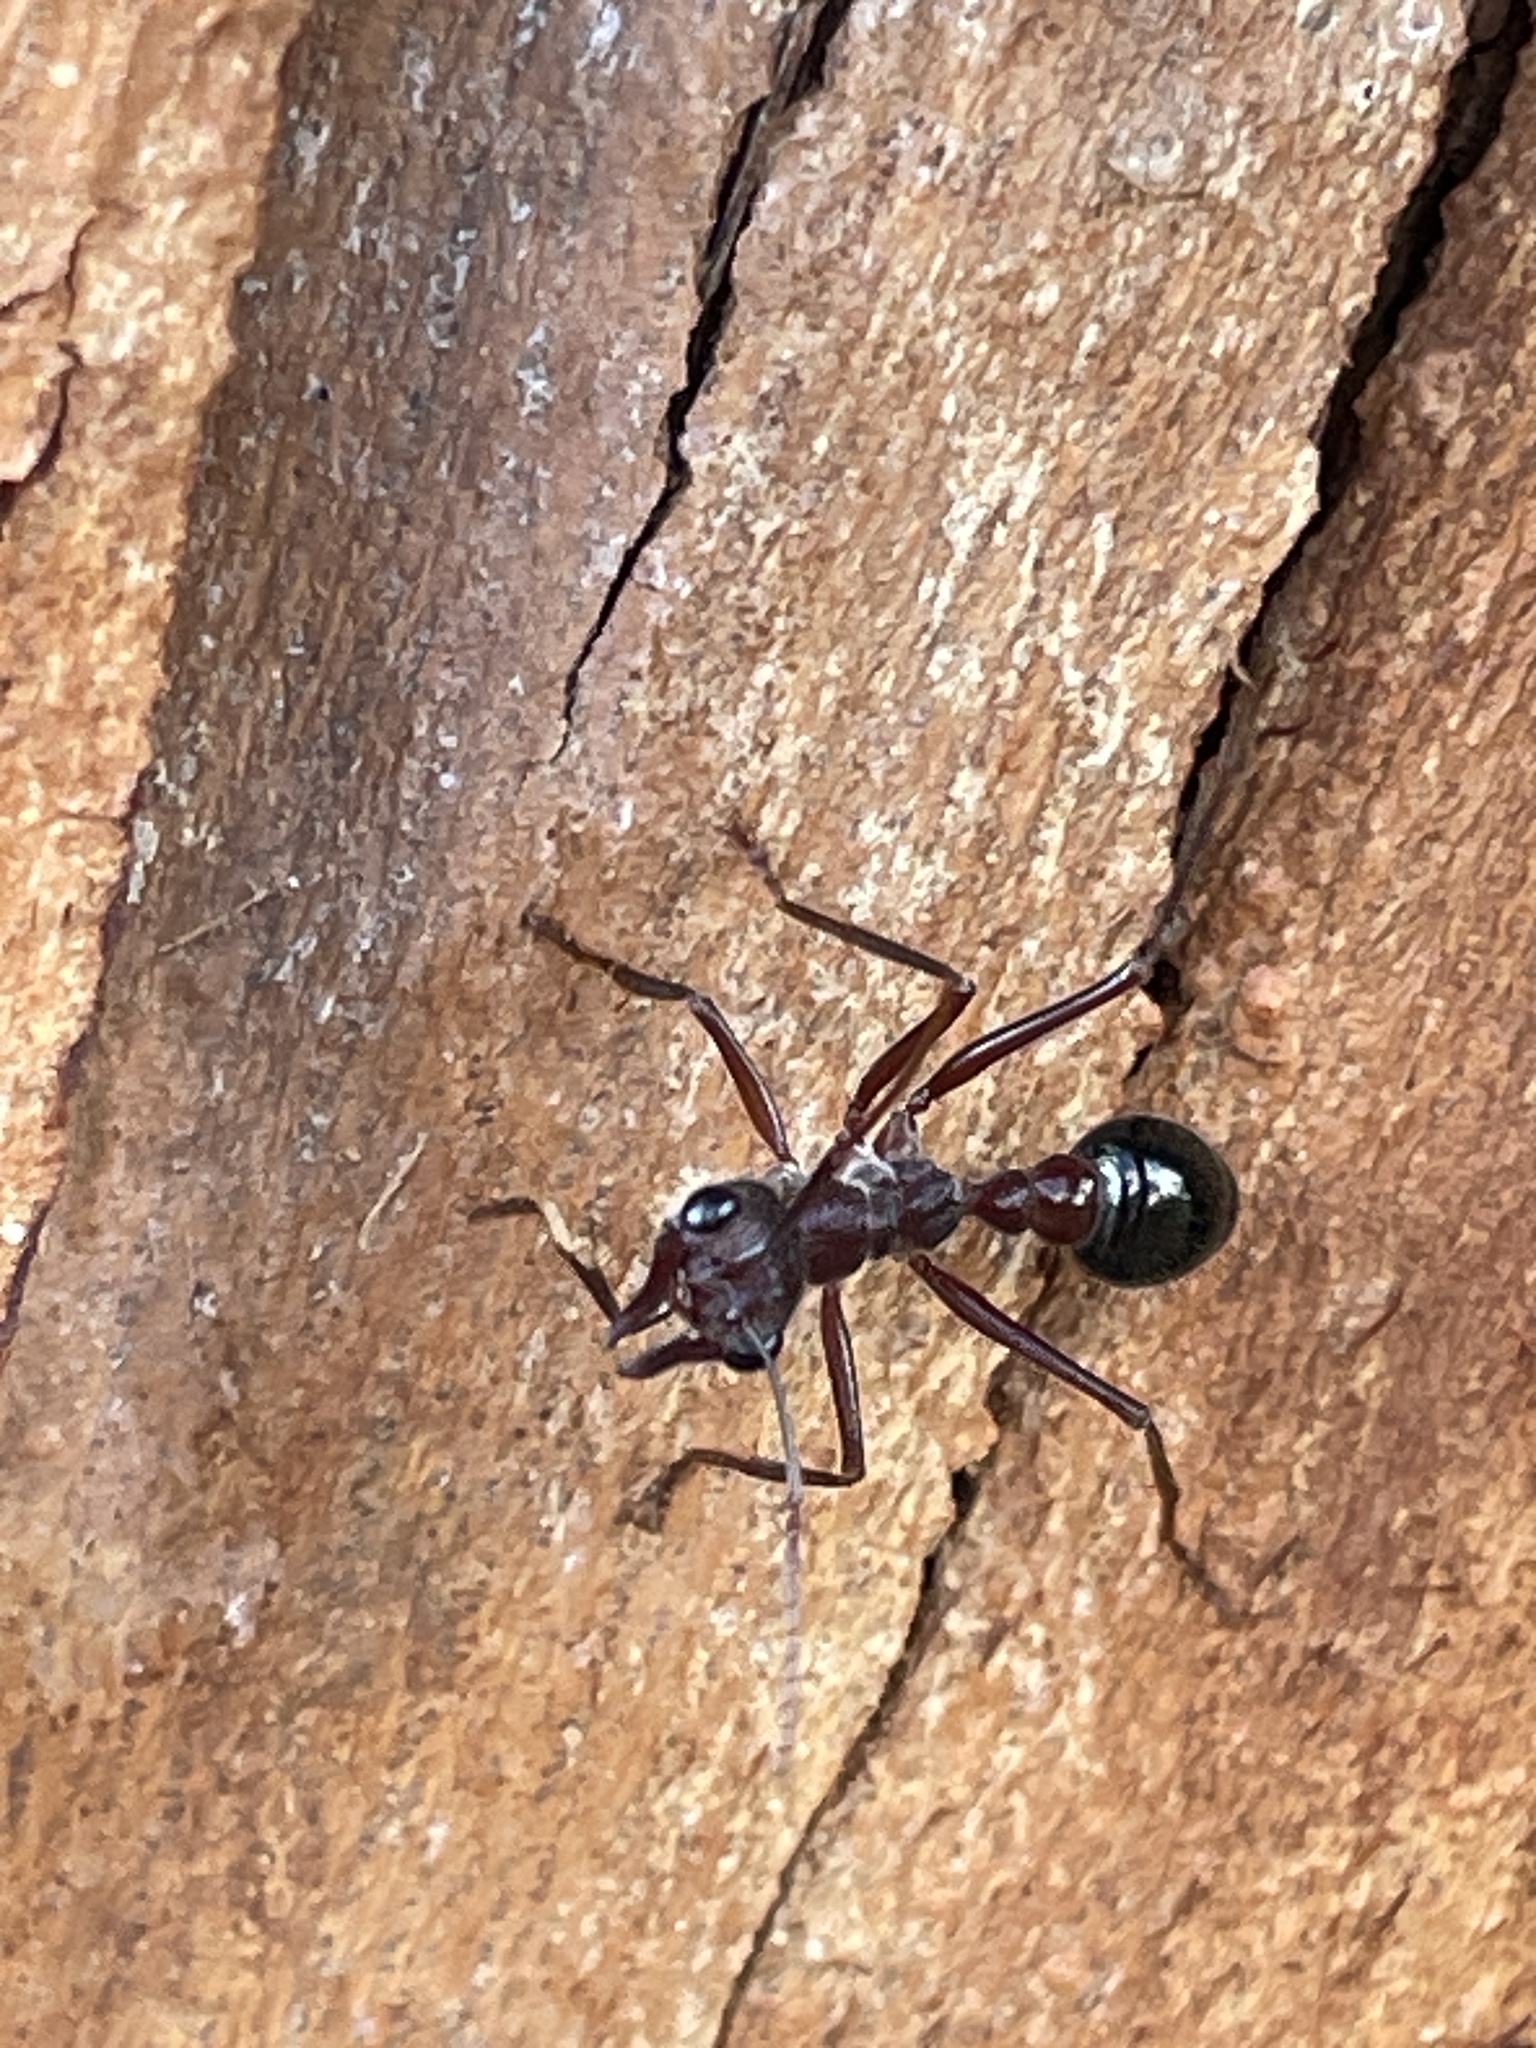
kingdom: Animalia
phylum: Arthropoda
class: Insecta
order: Hymenoptera
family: Formicidae
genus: Myrmecia
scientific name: Myrmecia forficata
